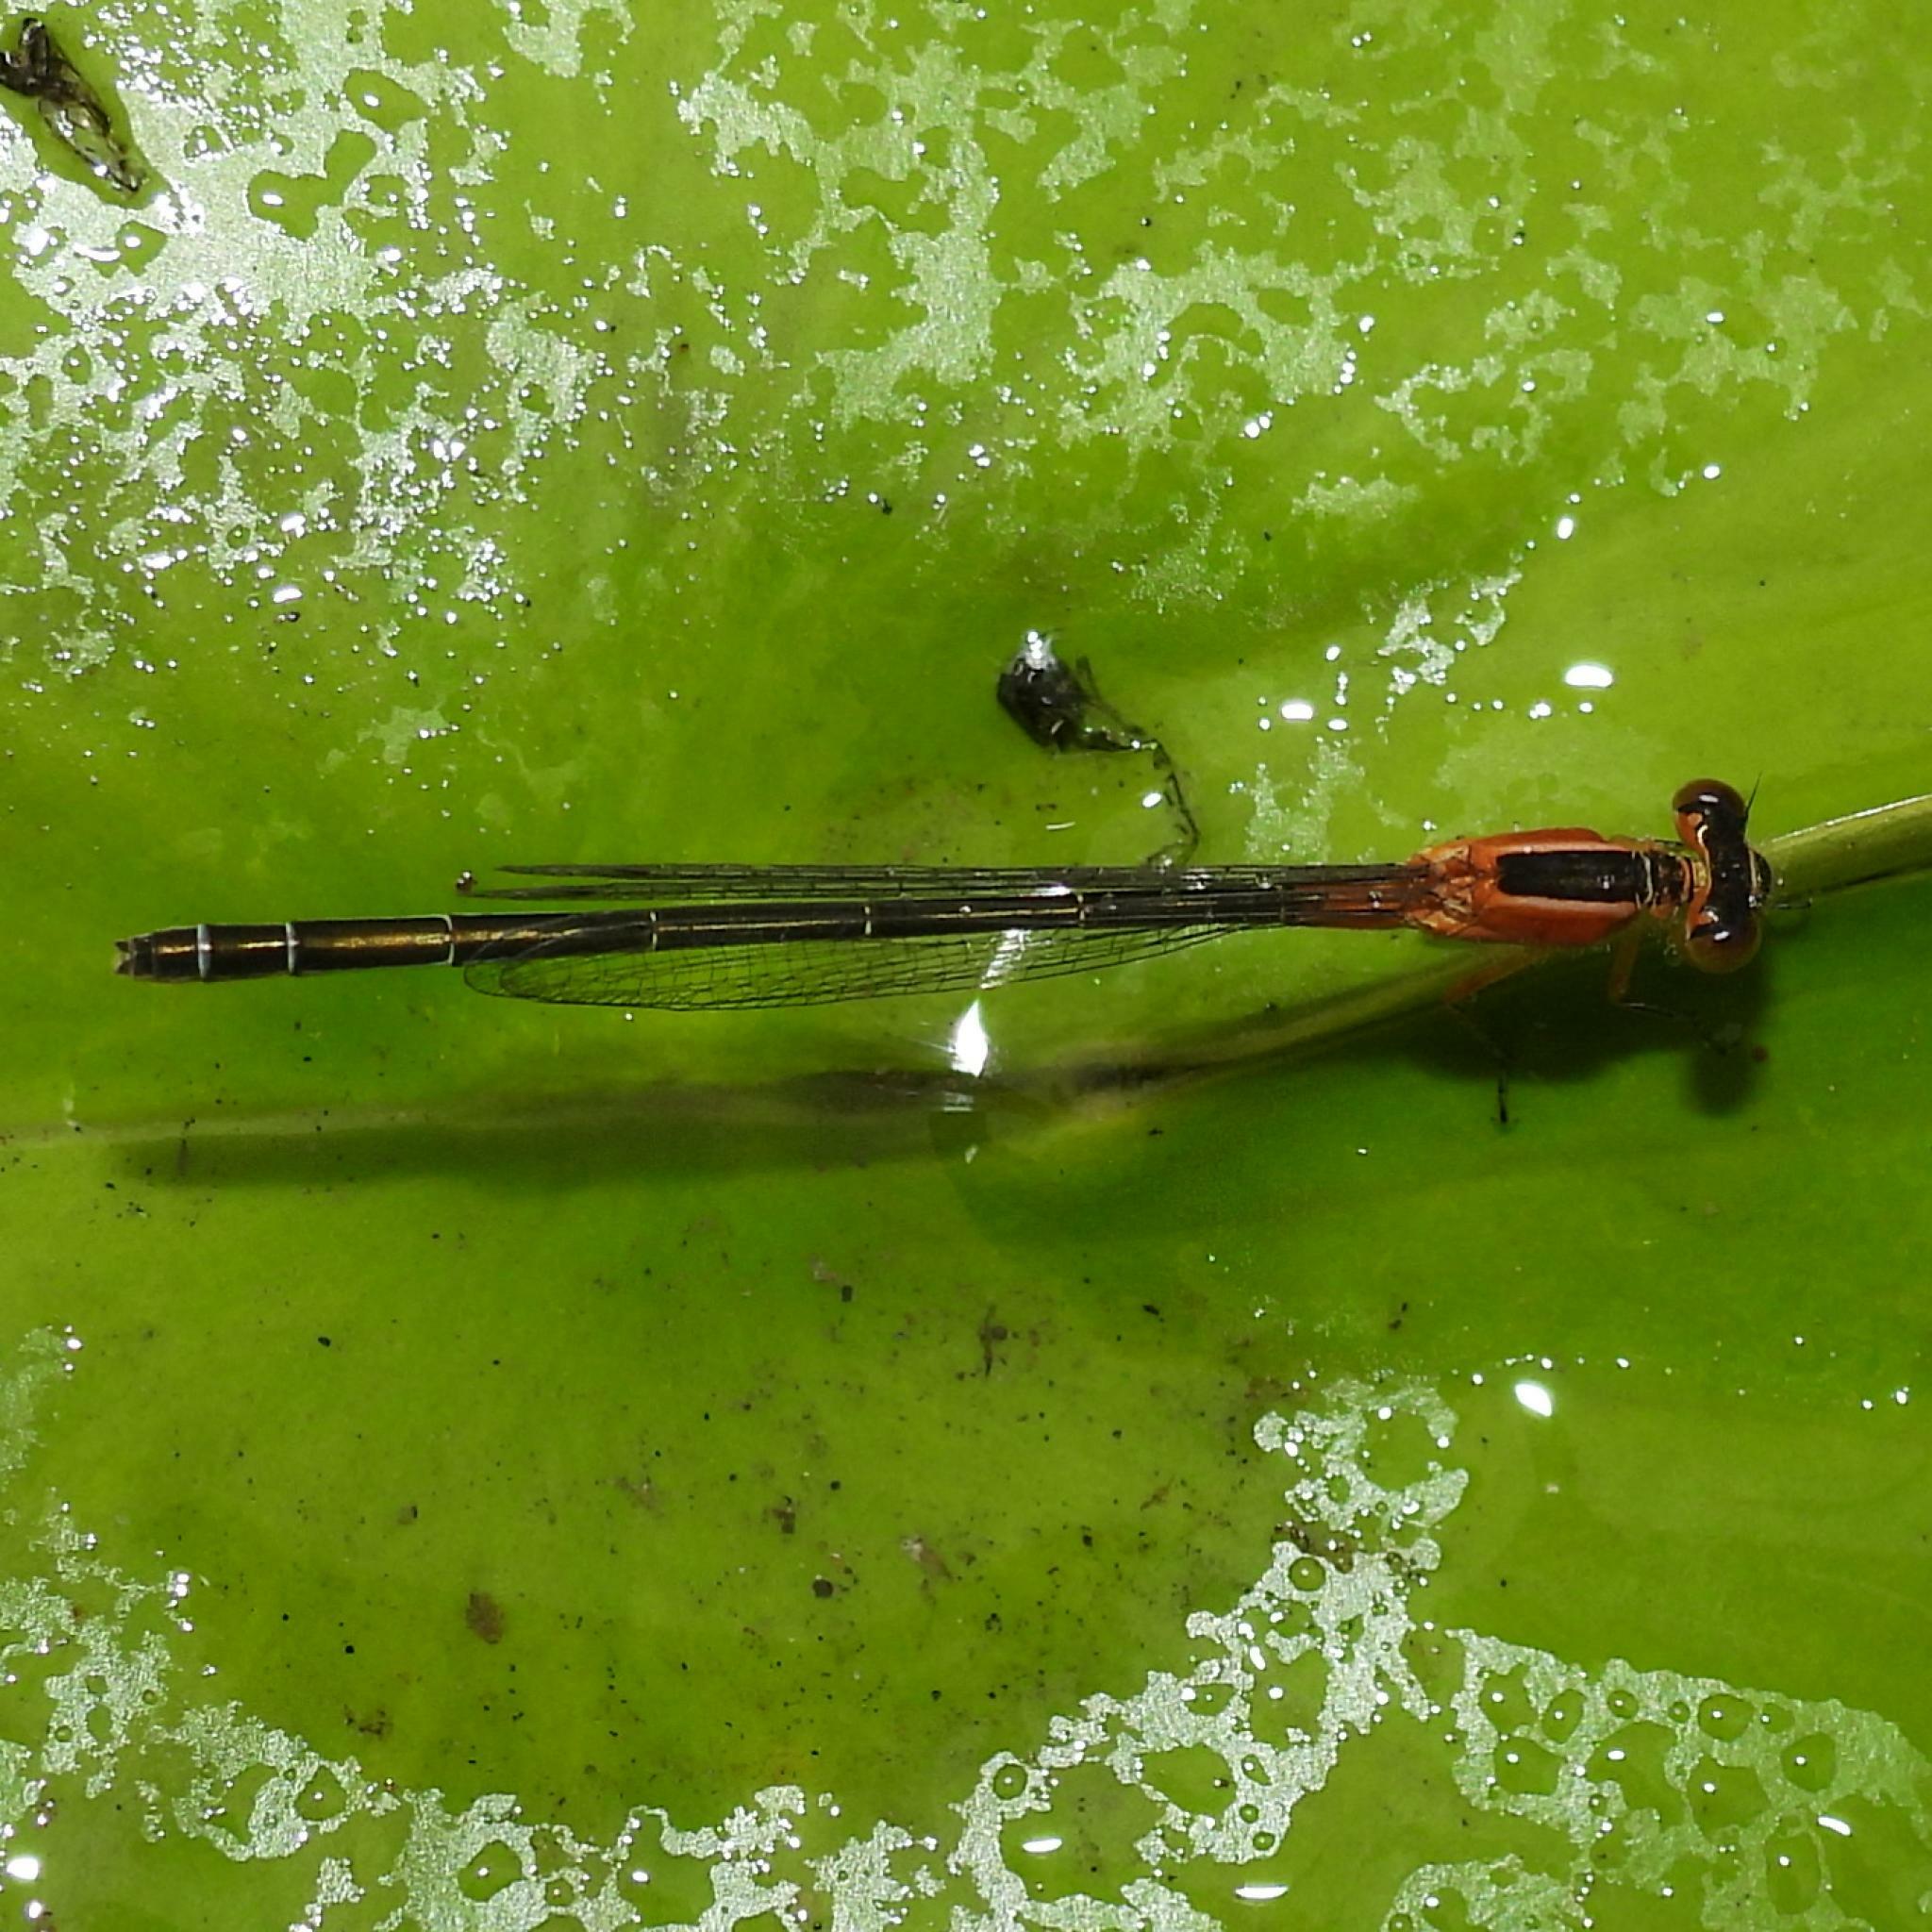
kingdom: Animalia
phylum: Arthropoda
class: Insecta
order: Odonata
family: Coenagrionidae
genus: Ischnura
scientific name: Ischnura senegalensis
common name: Tropical bluetail
